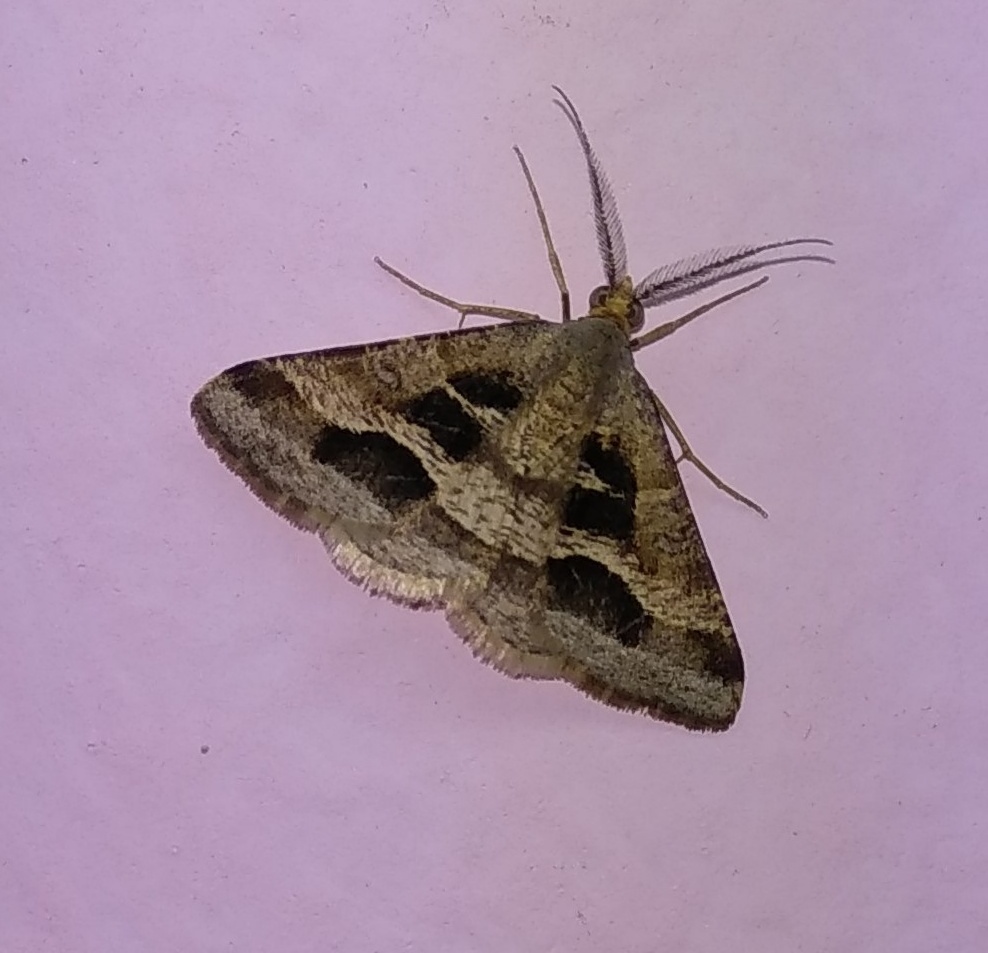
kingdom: Animalia
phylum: Arthropoda
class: Insecta
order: Lepidoptera
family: Geometridae
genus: Isturgia
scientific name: Isturgia disputaria
